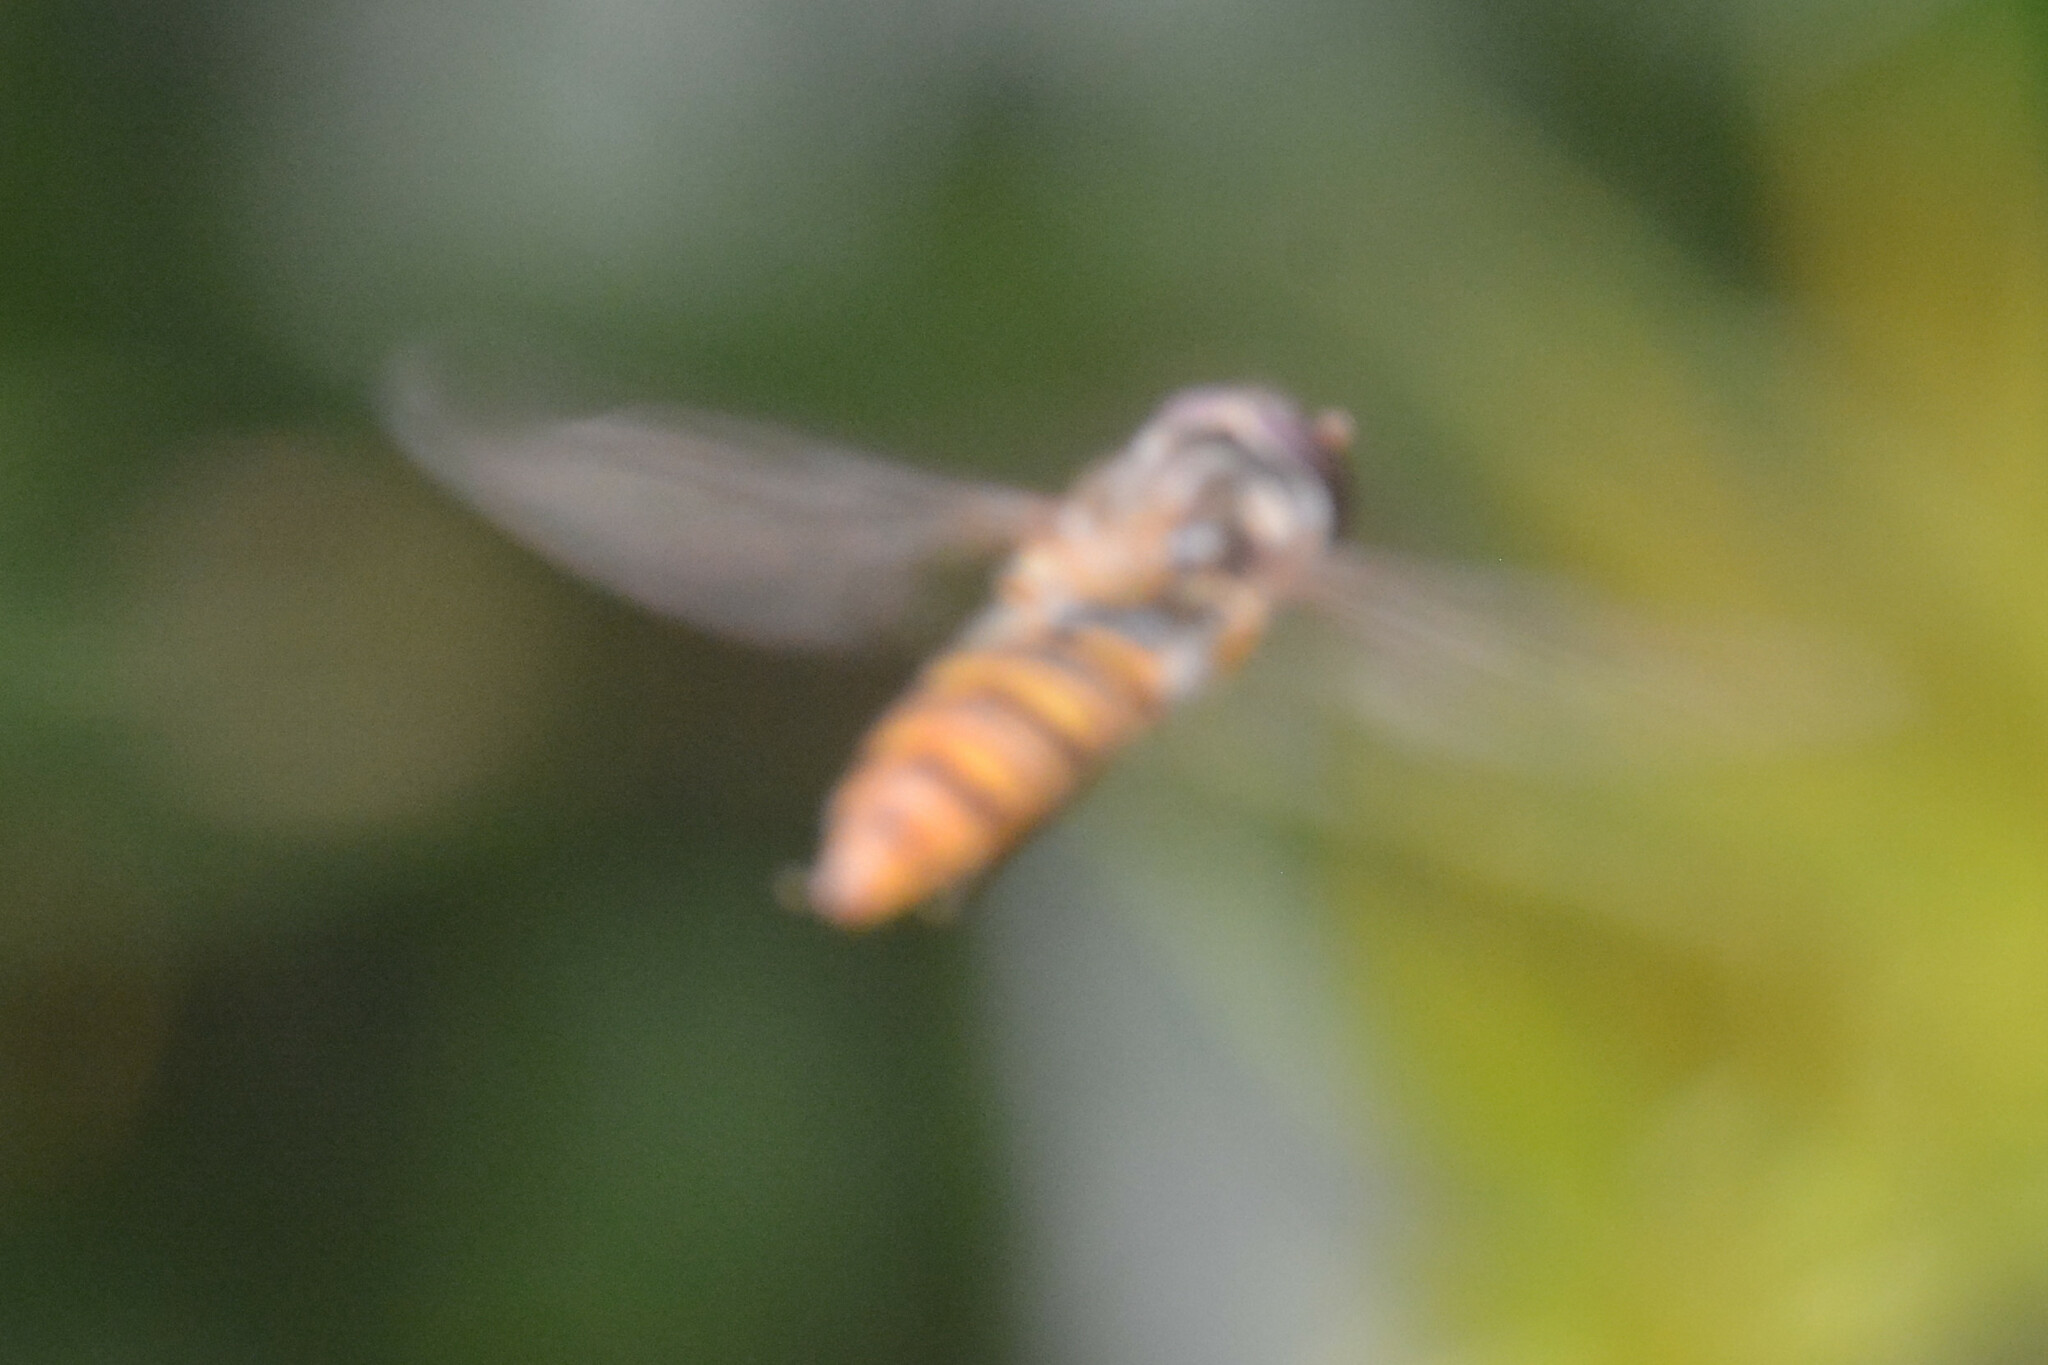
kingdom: Animalia
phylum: Arthropoda
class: Insecta
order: Diptera
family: Syrphidae
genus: Episyrphus
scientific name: Episyrphus balteatus
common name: Marmalade hoverfly
